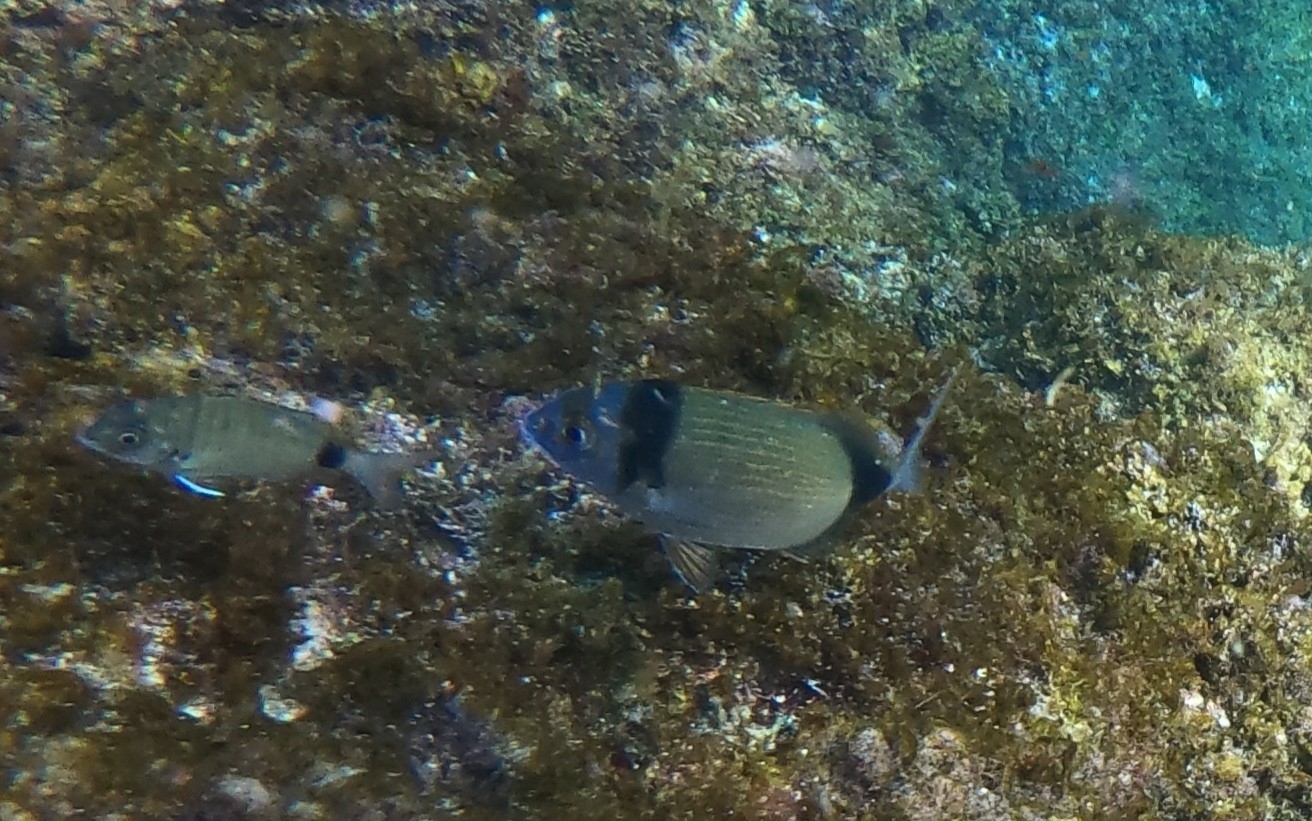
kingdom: Animalia
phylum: Chordata
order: Perciformes
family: Sparidae
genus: Diplodus
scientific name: Diplodus vulgaris
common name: Common two-banded seabream
